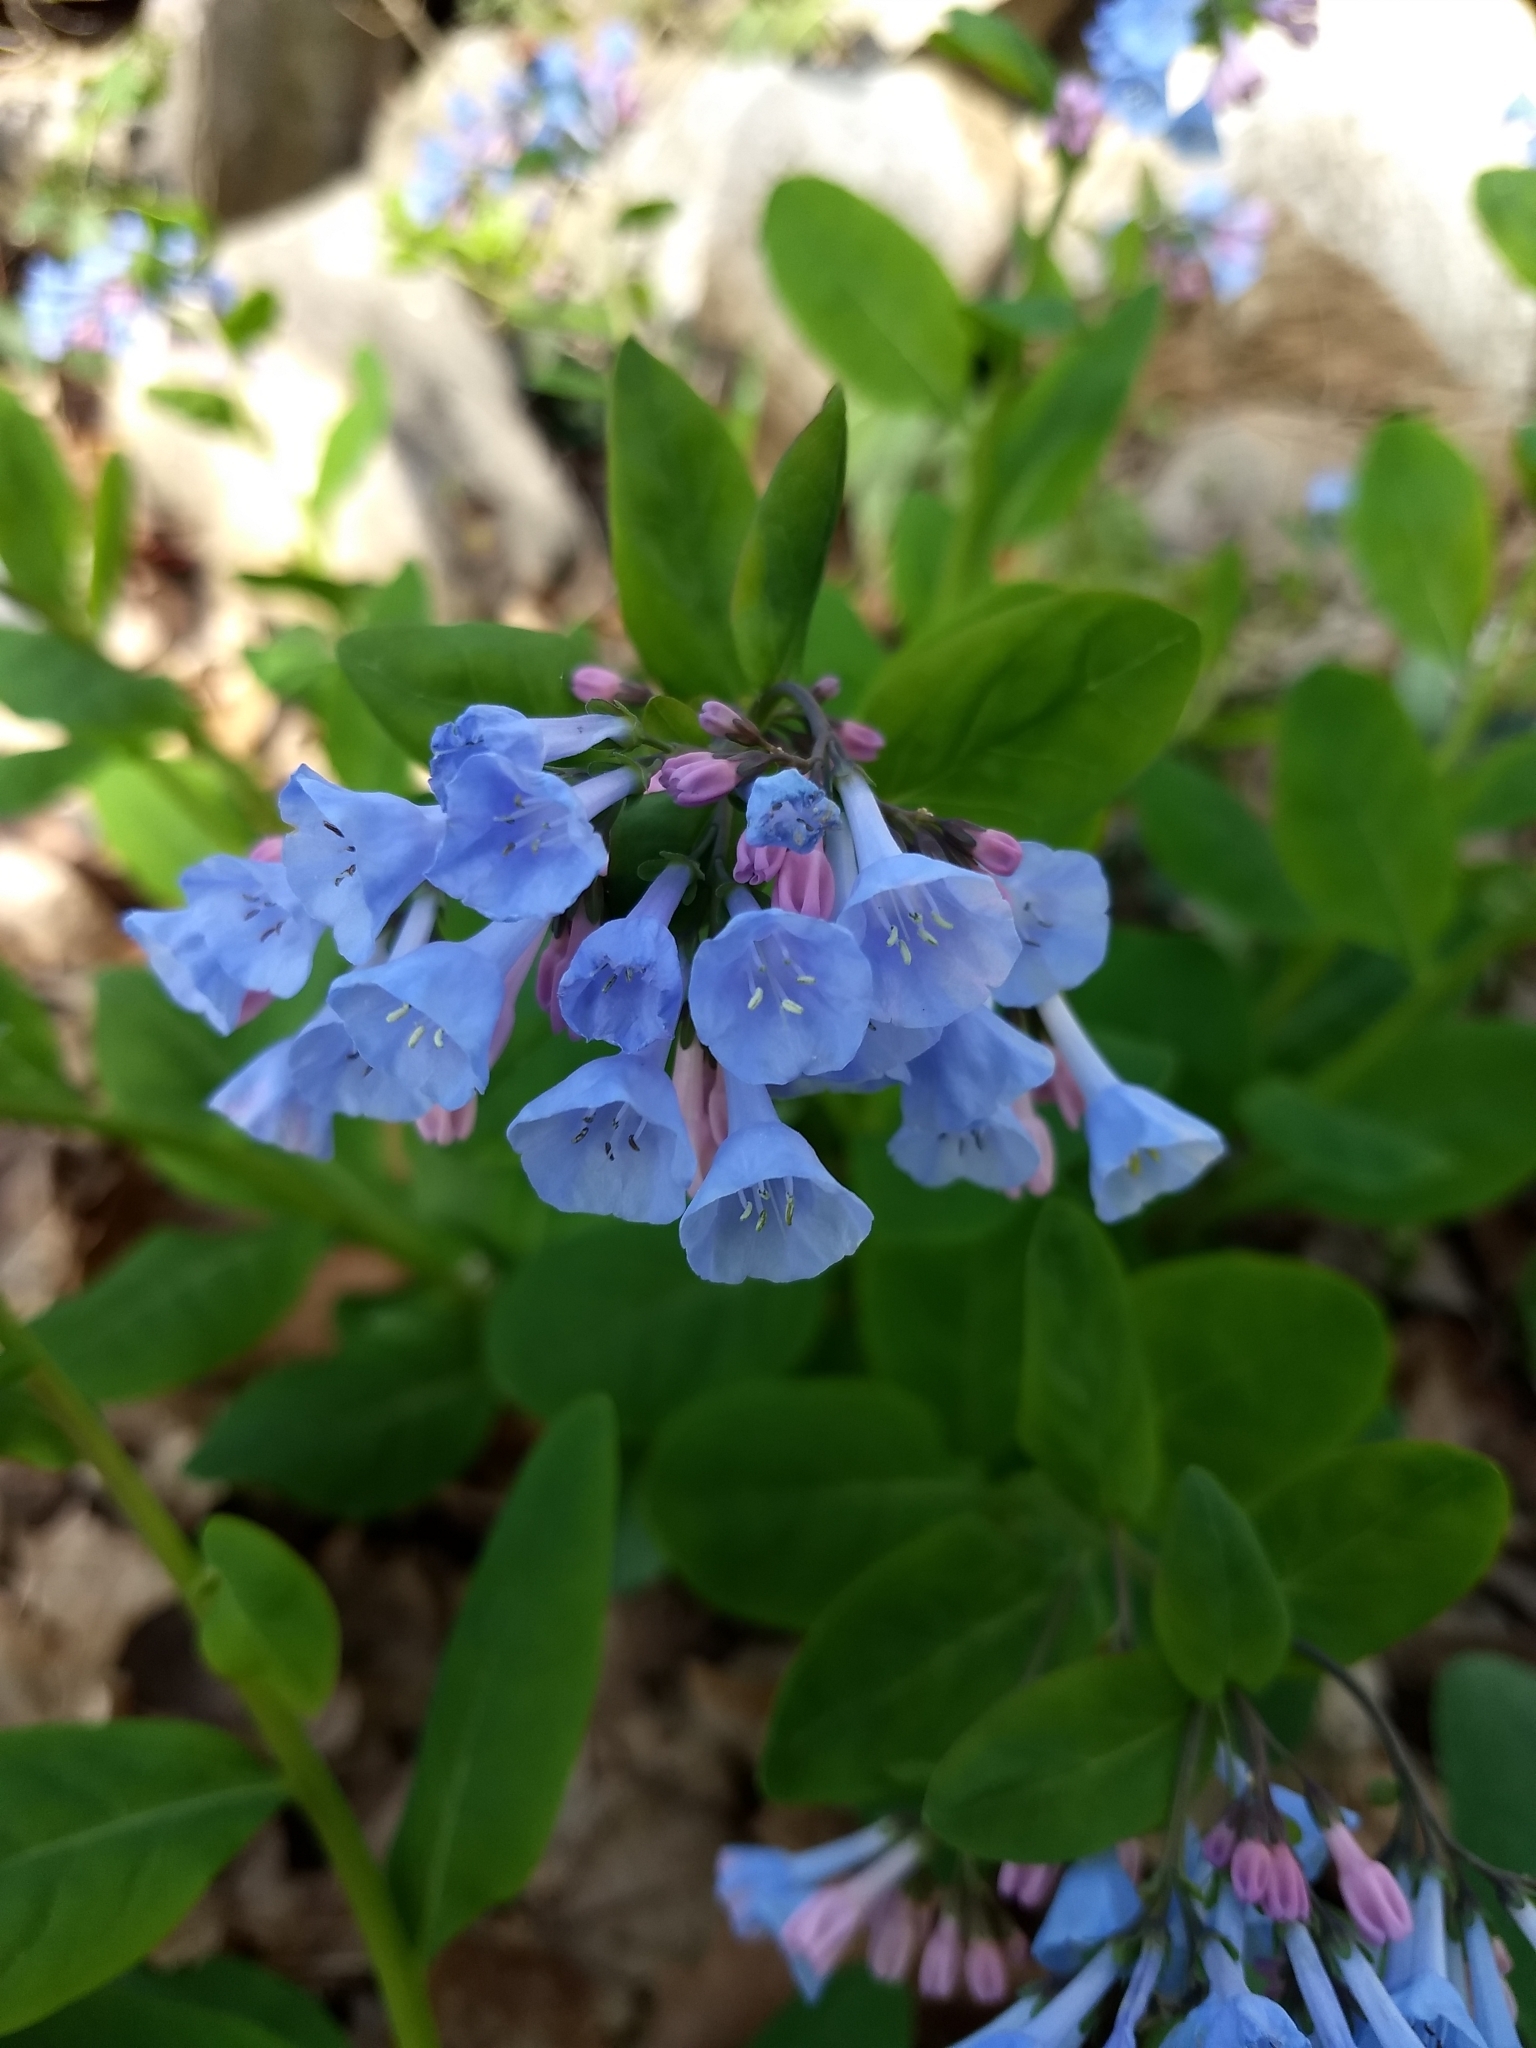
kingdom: Plantae
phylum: Tracheophyta
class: Magnoliopsida
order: Boraginales
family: Boraginaceae
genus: Mertensia
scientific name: Mertensia virginica
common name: Virginia bluebells
